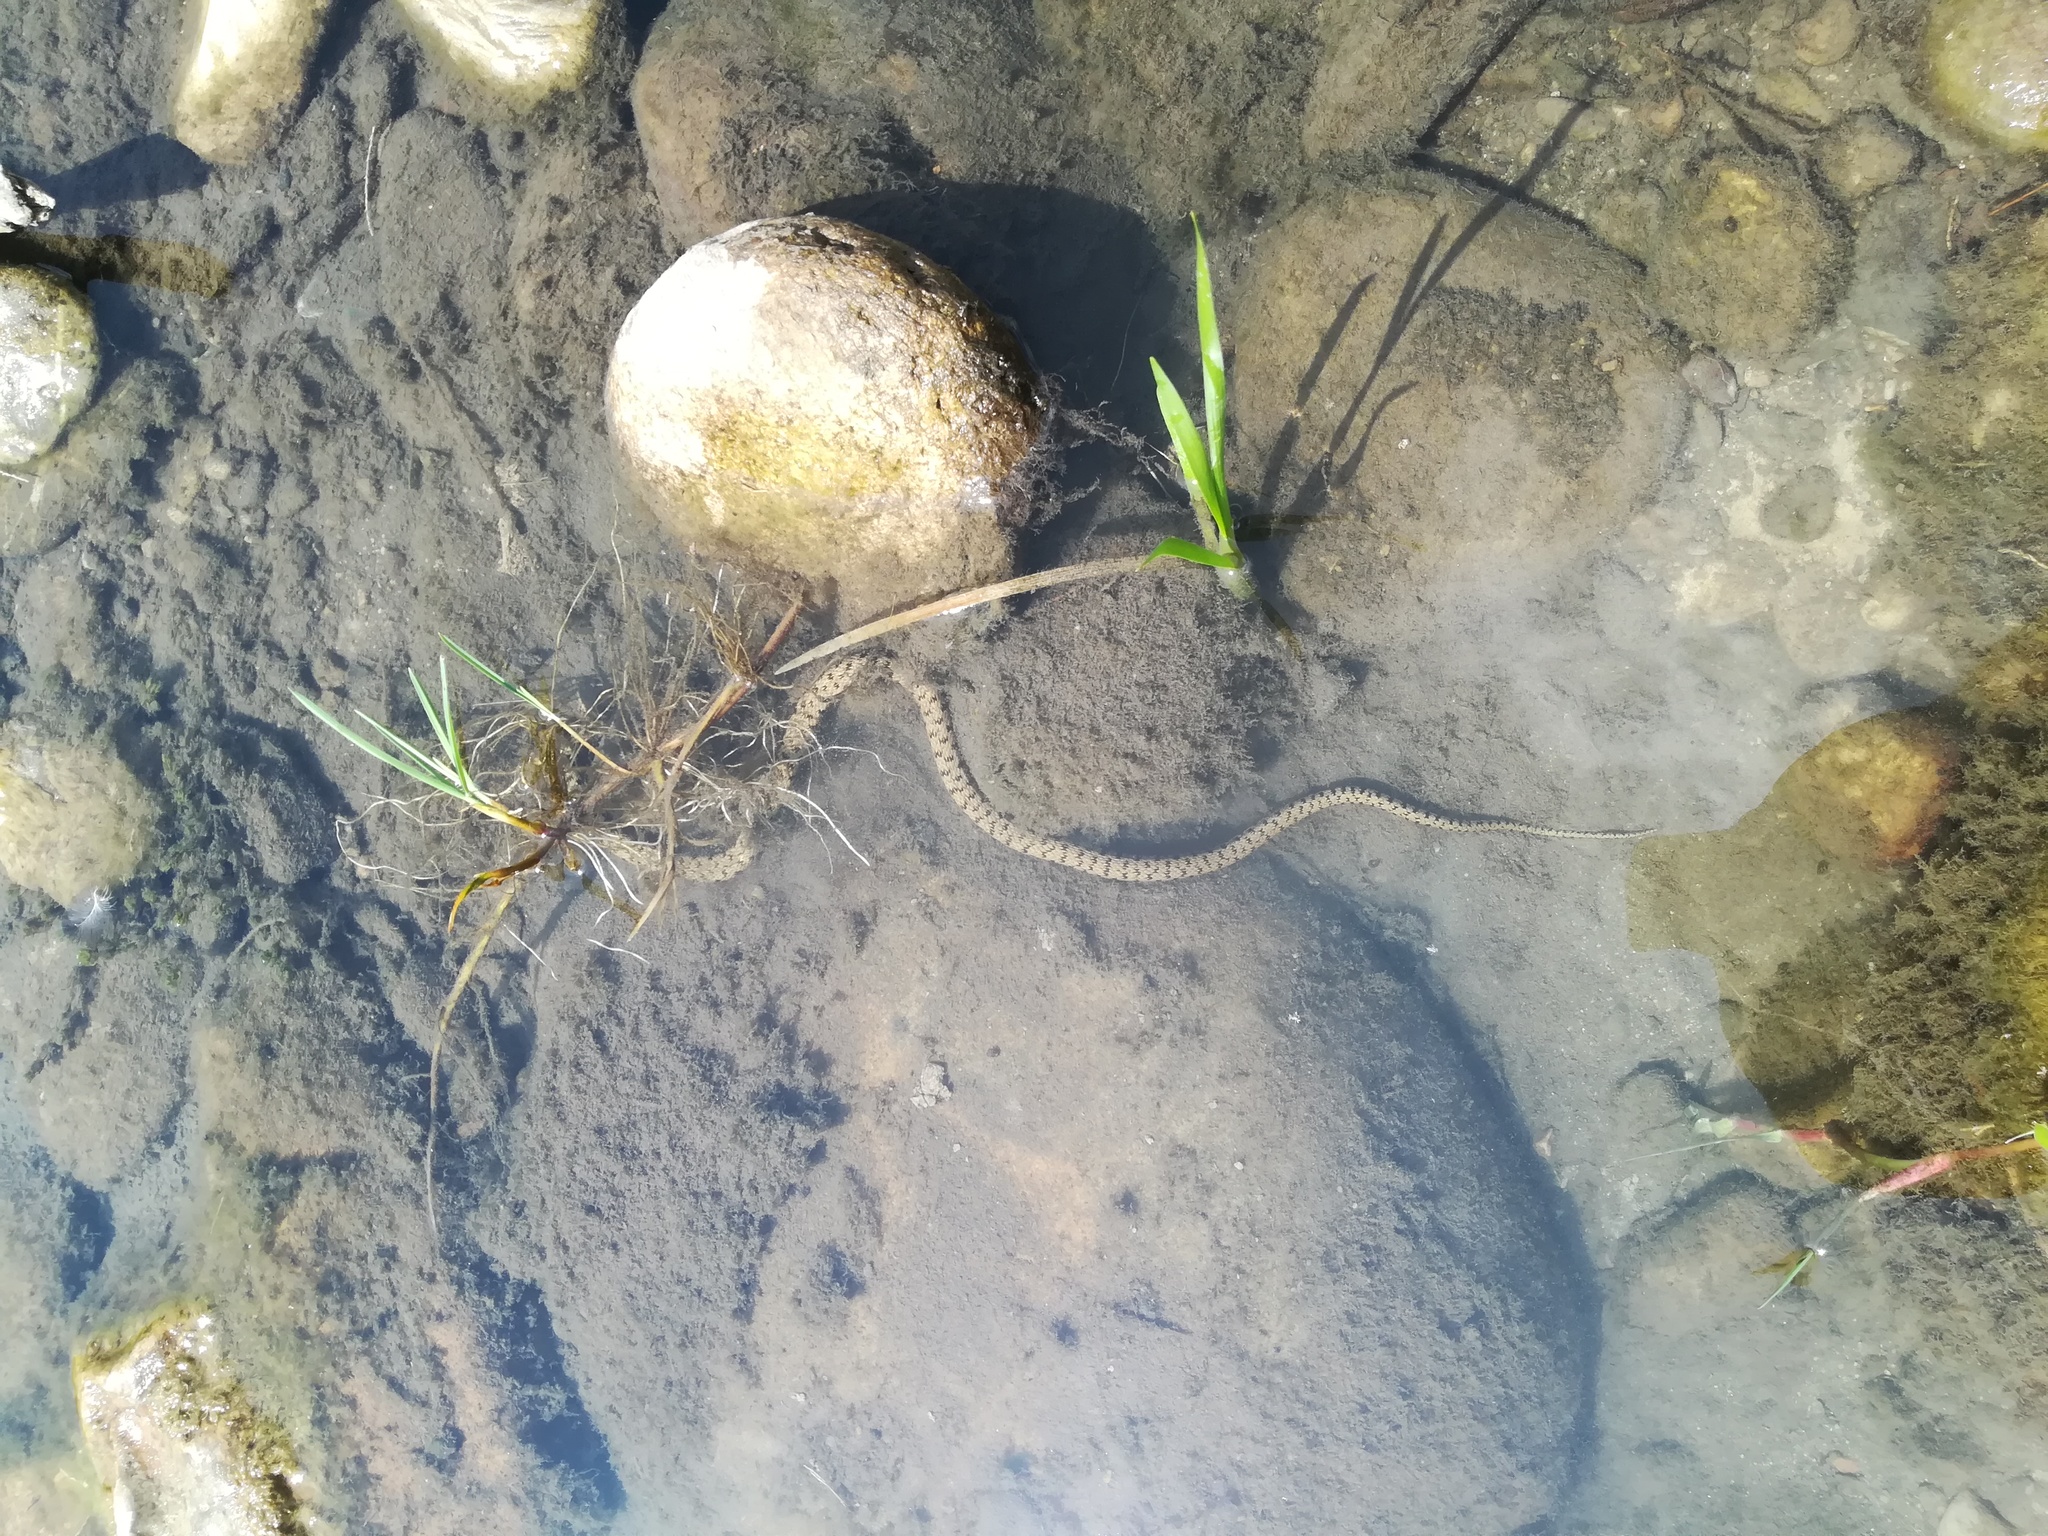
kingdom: Animalia
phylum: Chordata
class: Squamata
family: Colubridae
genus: Natrix
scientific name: Natrix helvetica
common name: Banded grass snake
